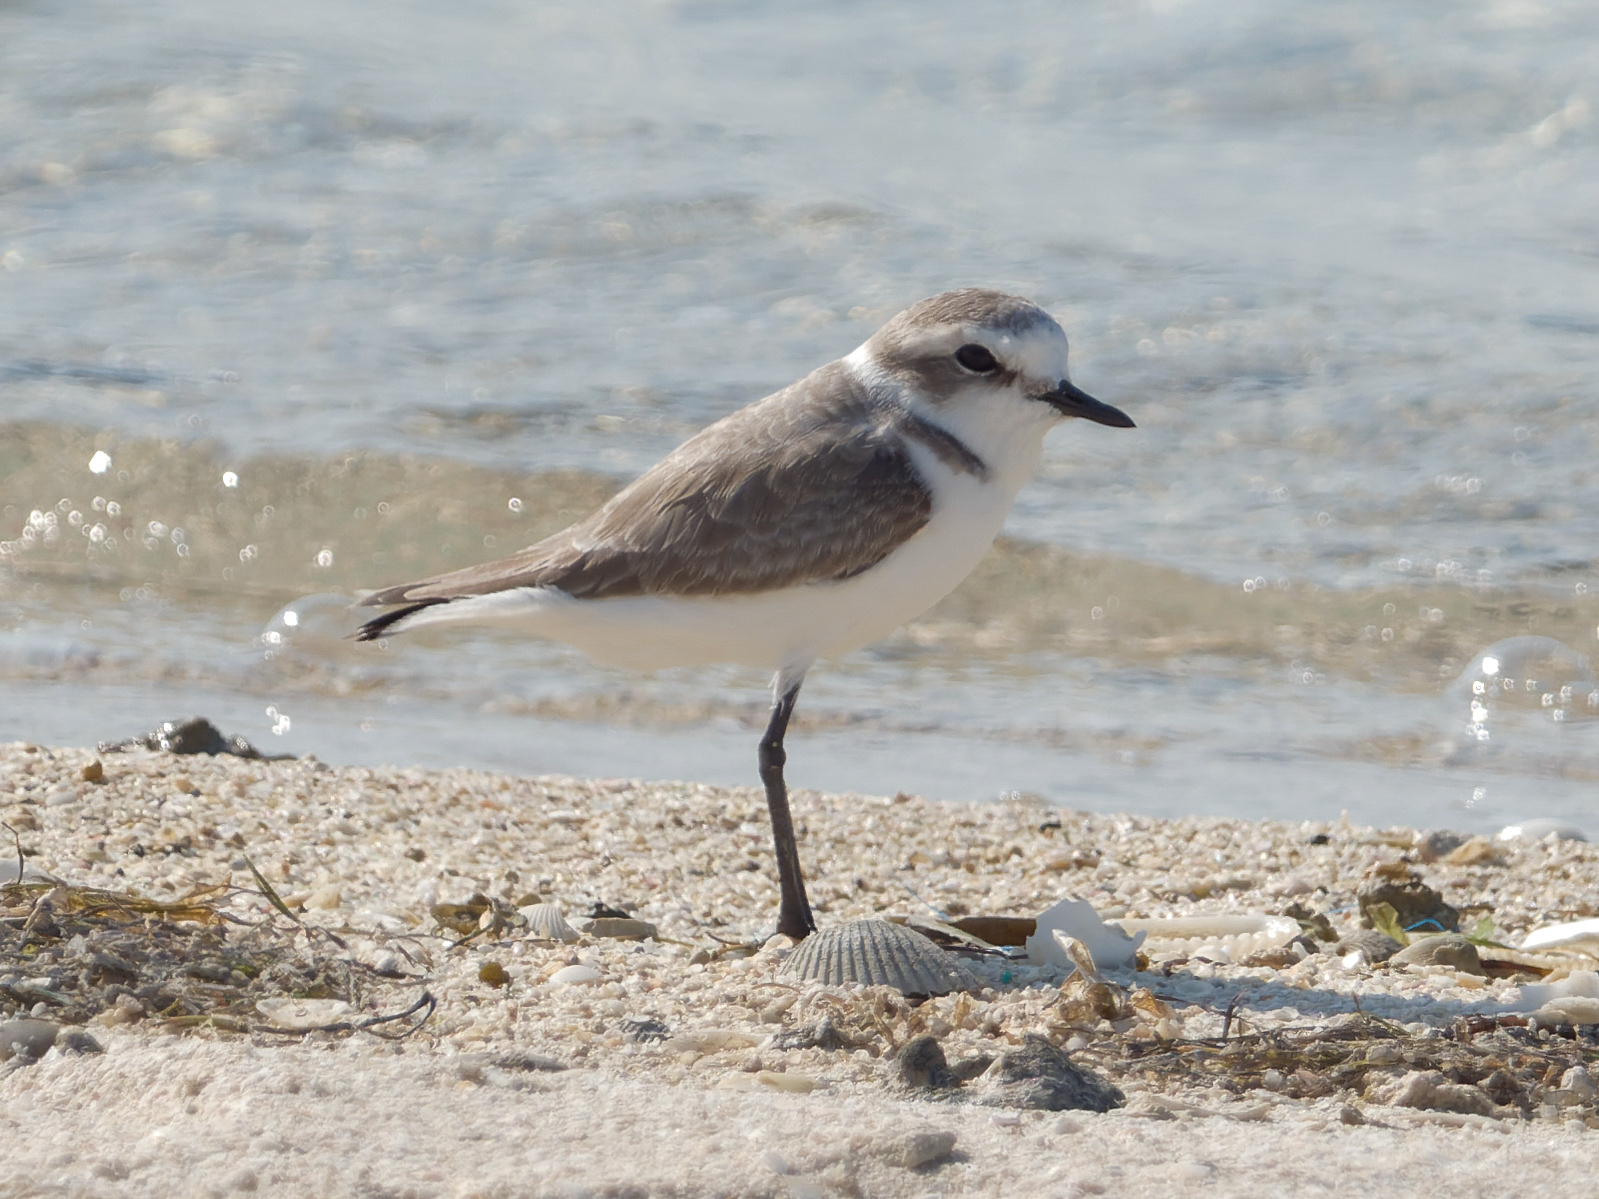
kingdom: Animalia
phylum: Chordata
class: Aves
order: Charadriiformes
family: Charadriidae
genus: Charadrius
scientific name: Charadrius alexandrinus
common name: Kentish plover
